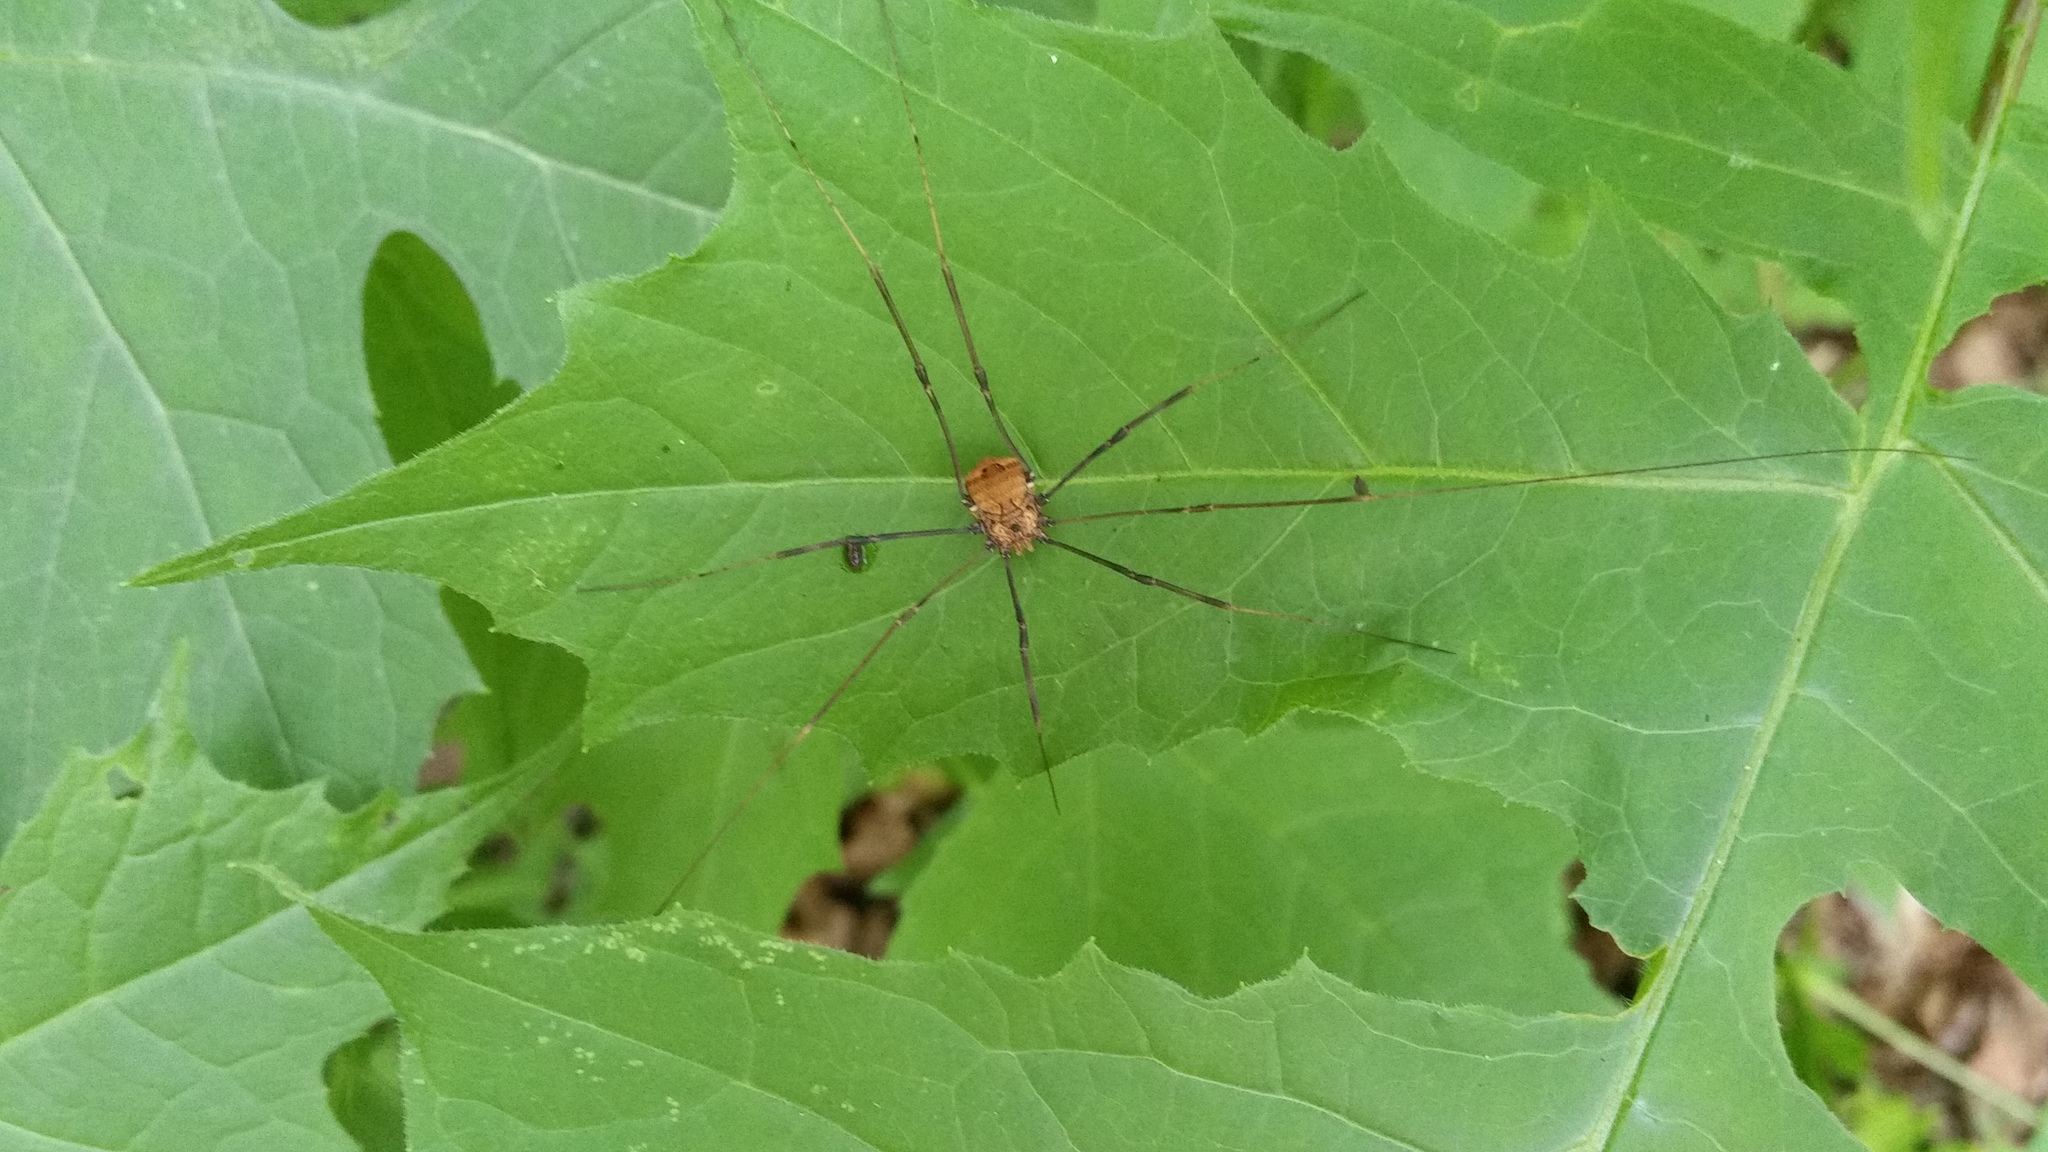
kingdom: Animalia
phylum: Arthropoda
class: Arachnida
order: Opiliones
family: Sclerosomatidae
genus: Leiobunum
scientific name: Leiobunum verrucosum
